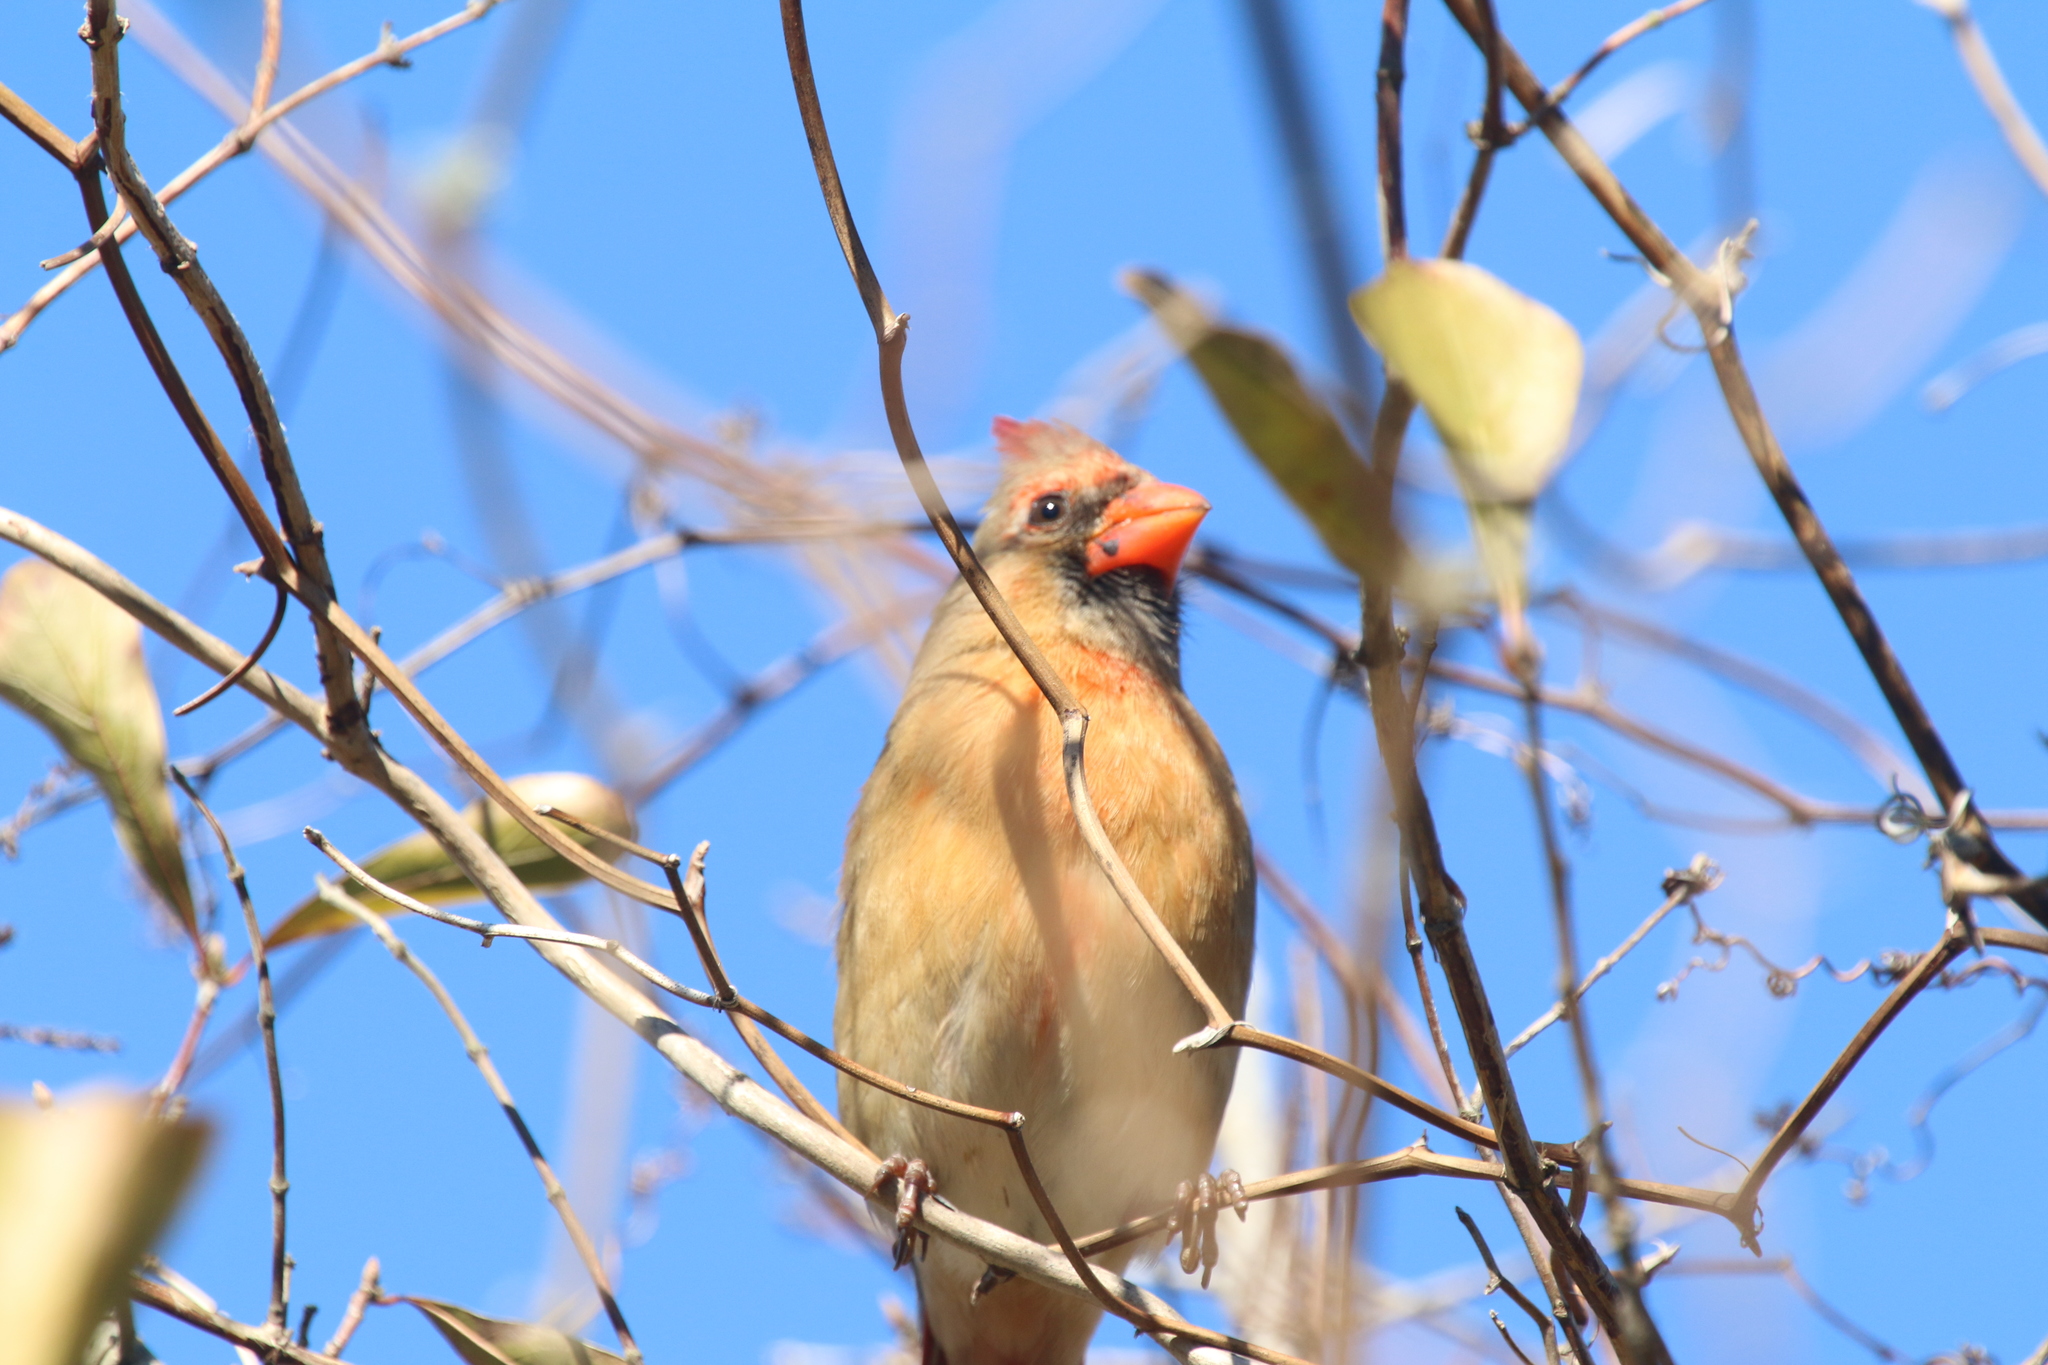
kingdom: Animalia
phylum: Chordata
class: Aves
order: Passeriformes
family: Cardinalidae
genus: Cardinalis
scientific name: Cardinalis cardinalis
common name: Northern cardinal
